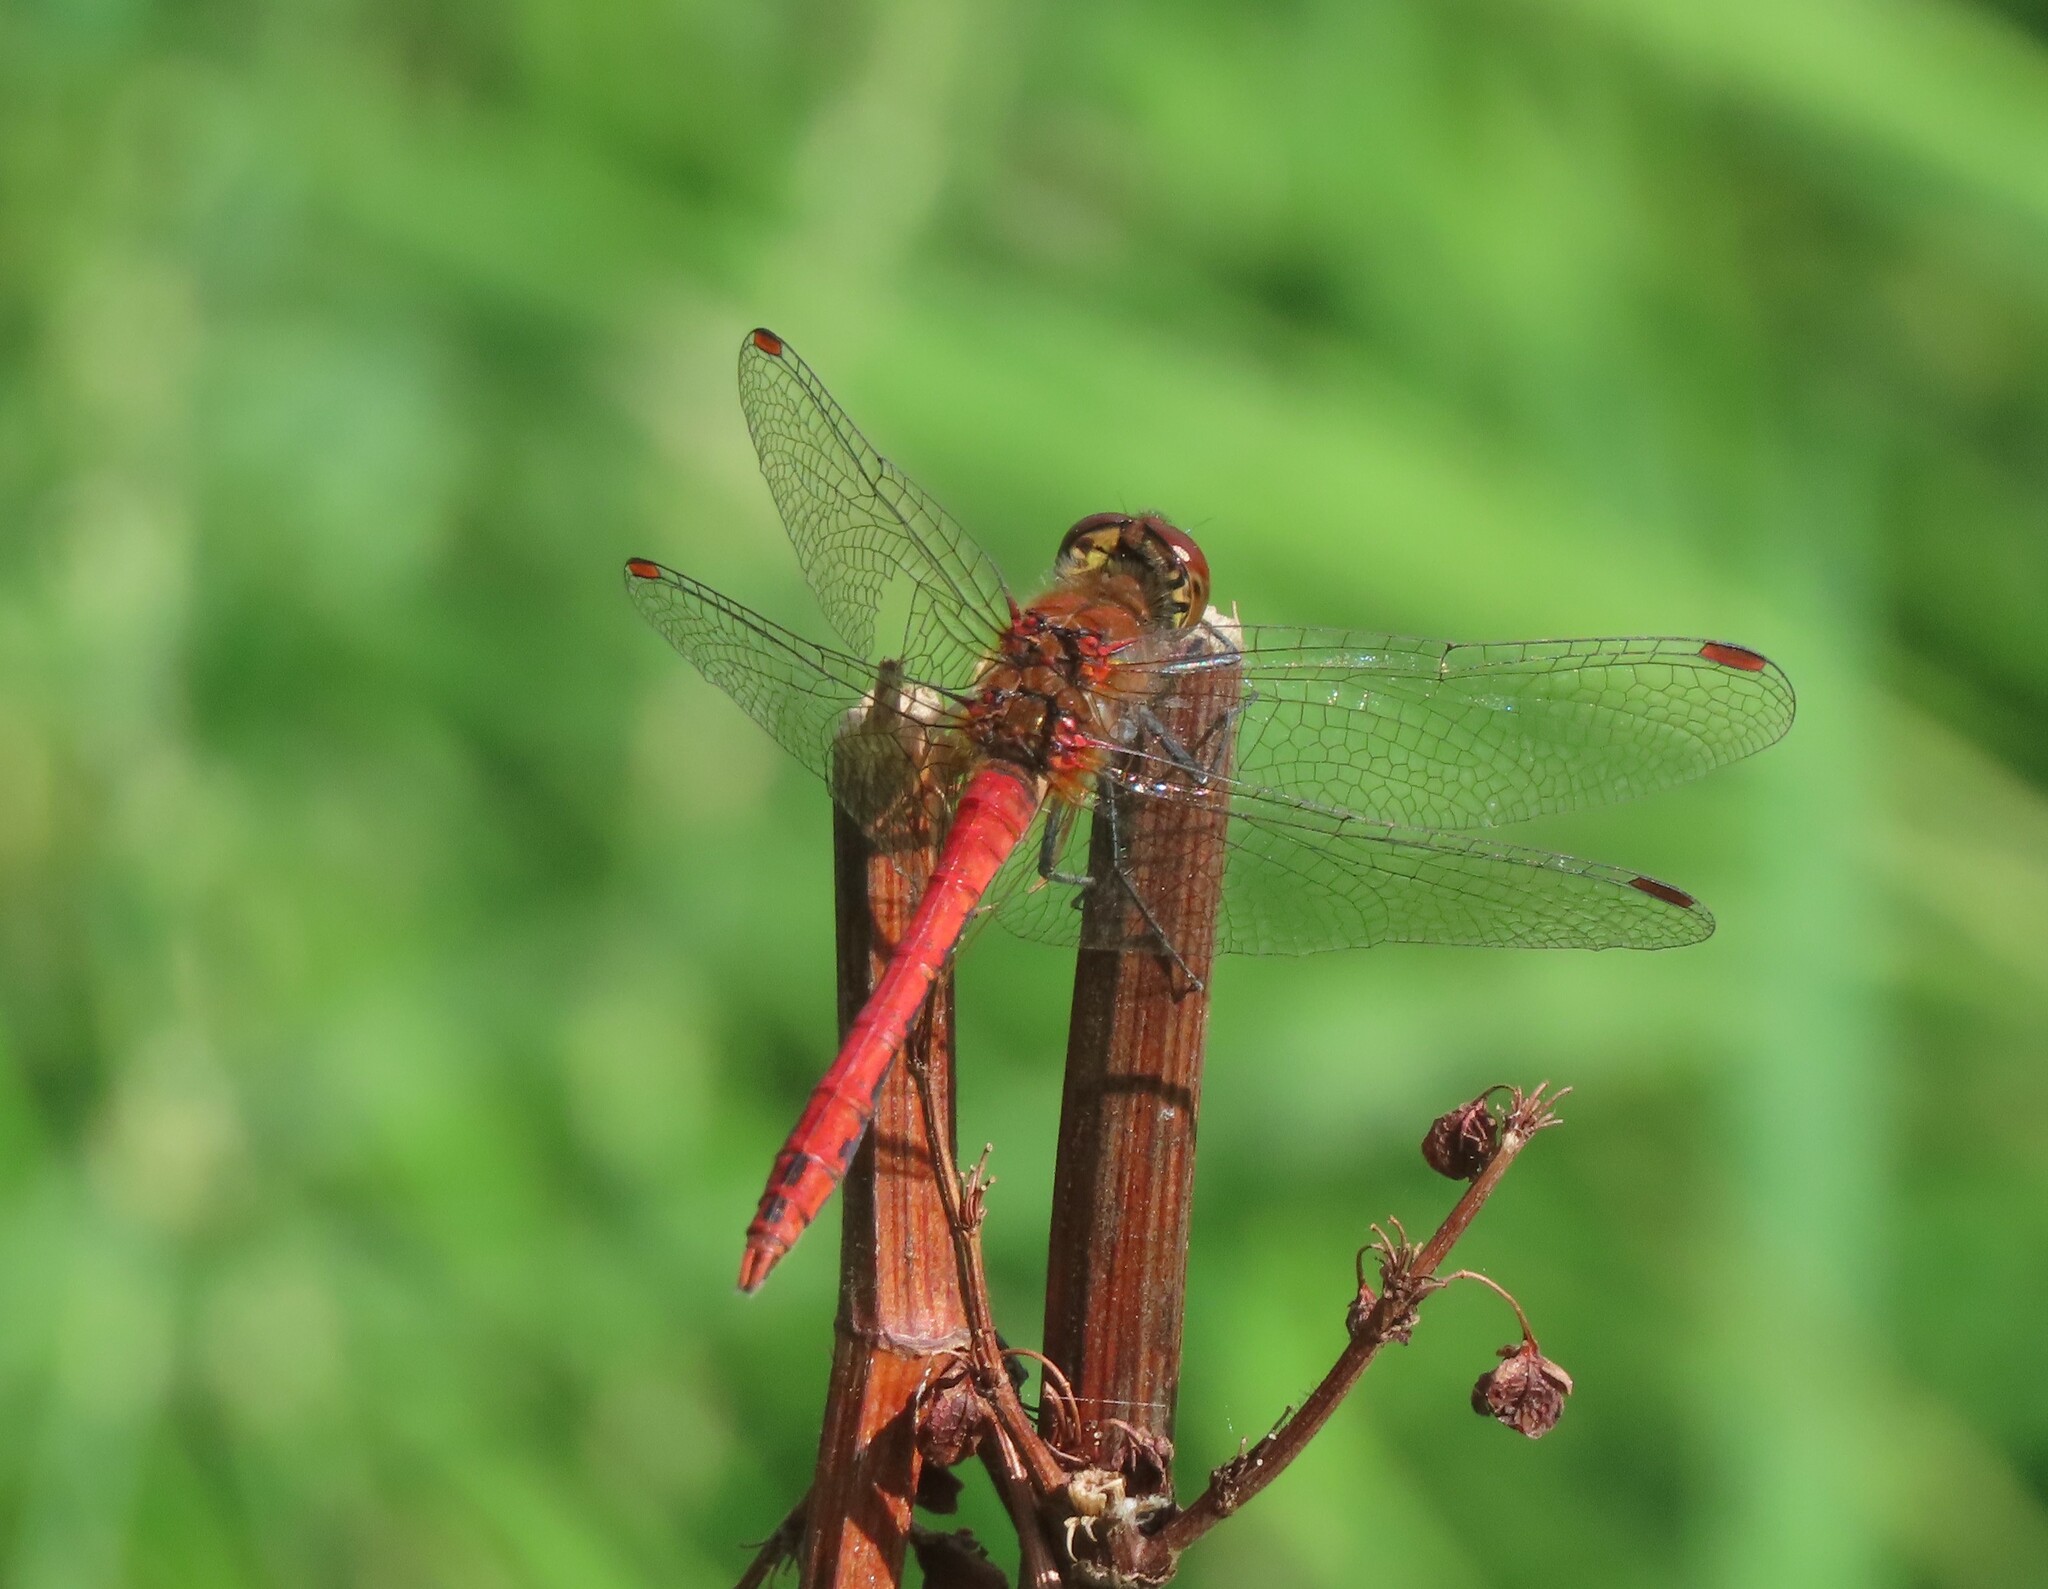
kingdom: Animalia
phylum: Arthropoda
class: Insecta
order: Odonata
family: Libellulidae
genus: Sympetrum
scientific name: Sympetrum sanguineum
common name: Ruddy darter
